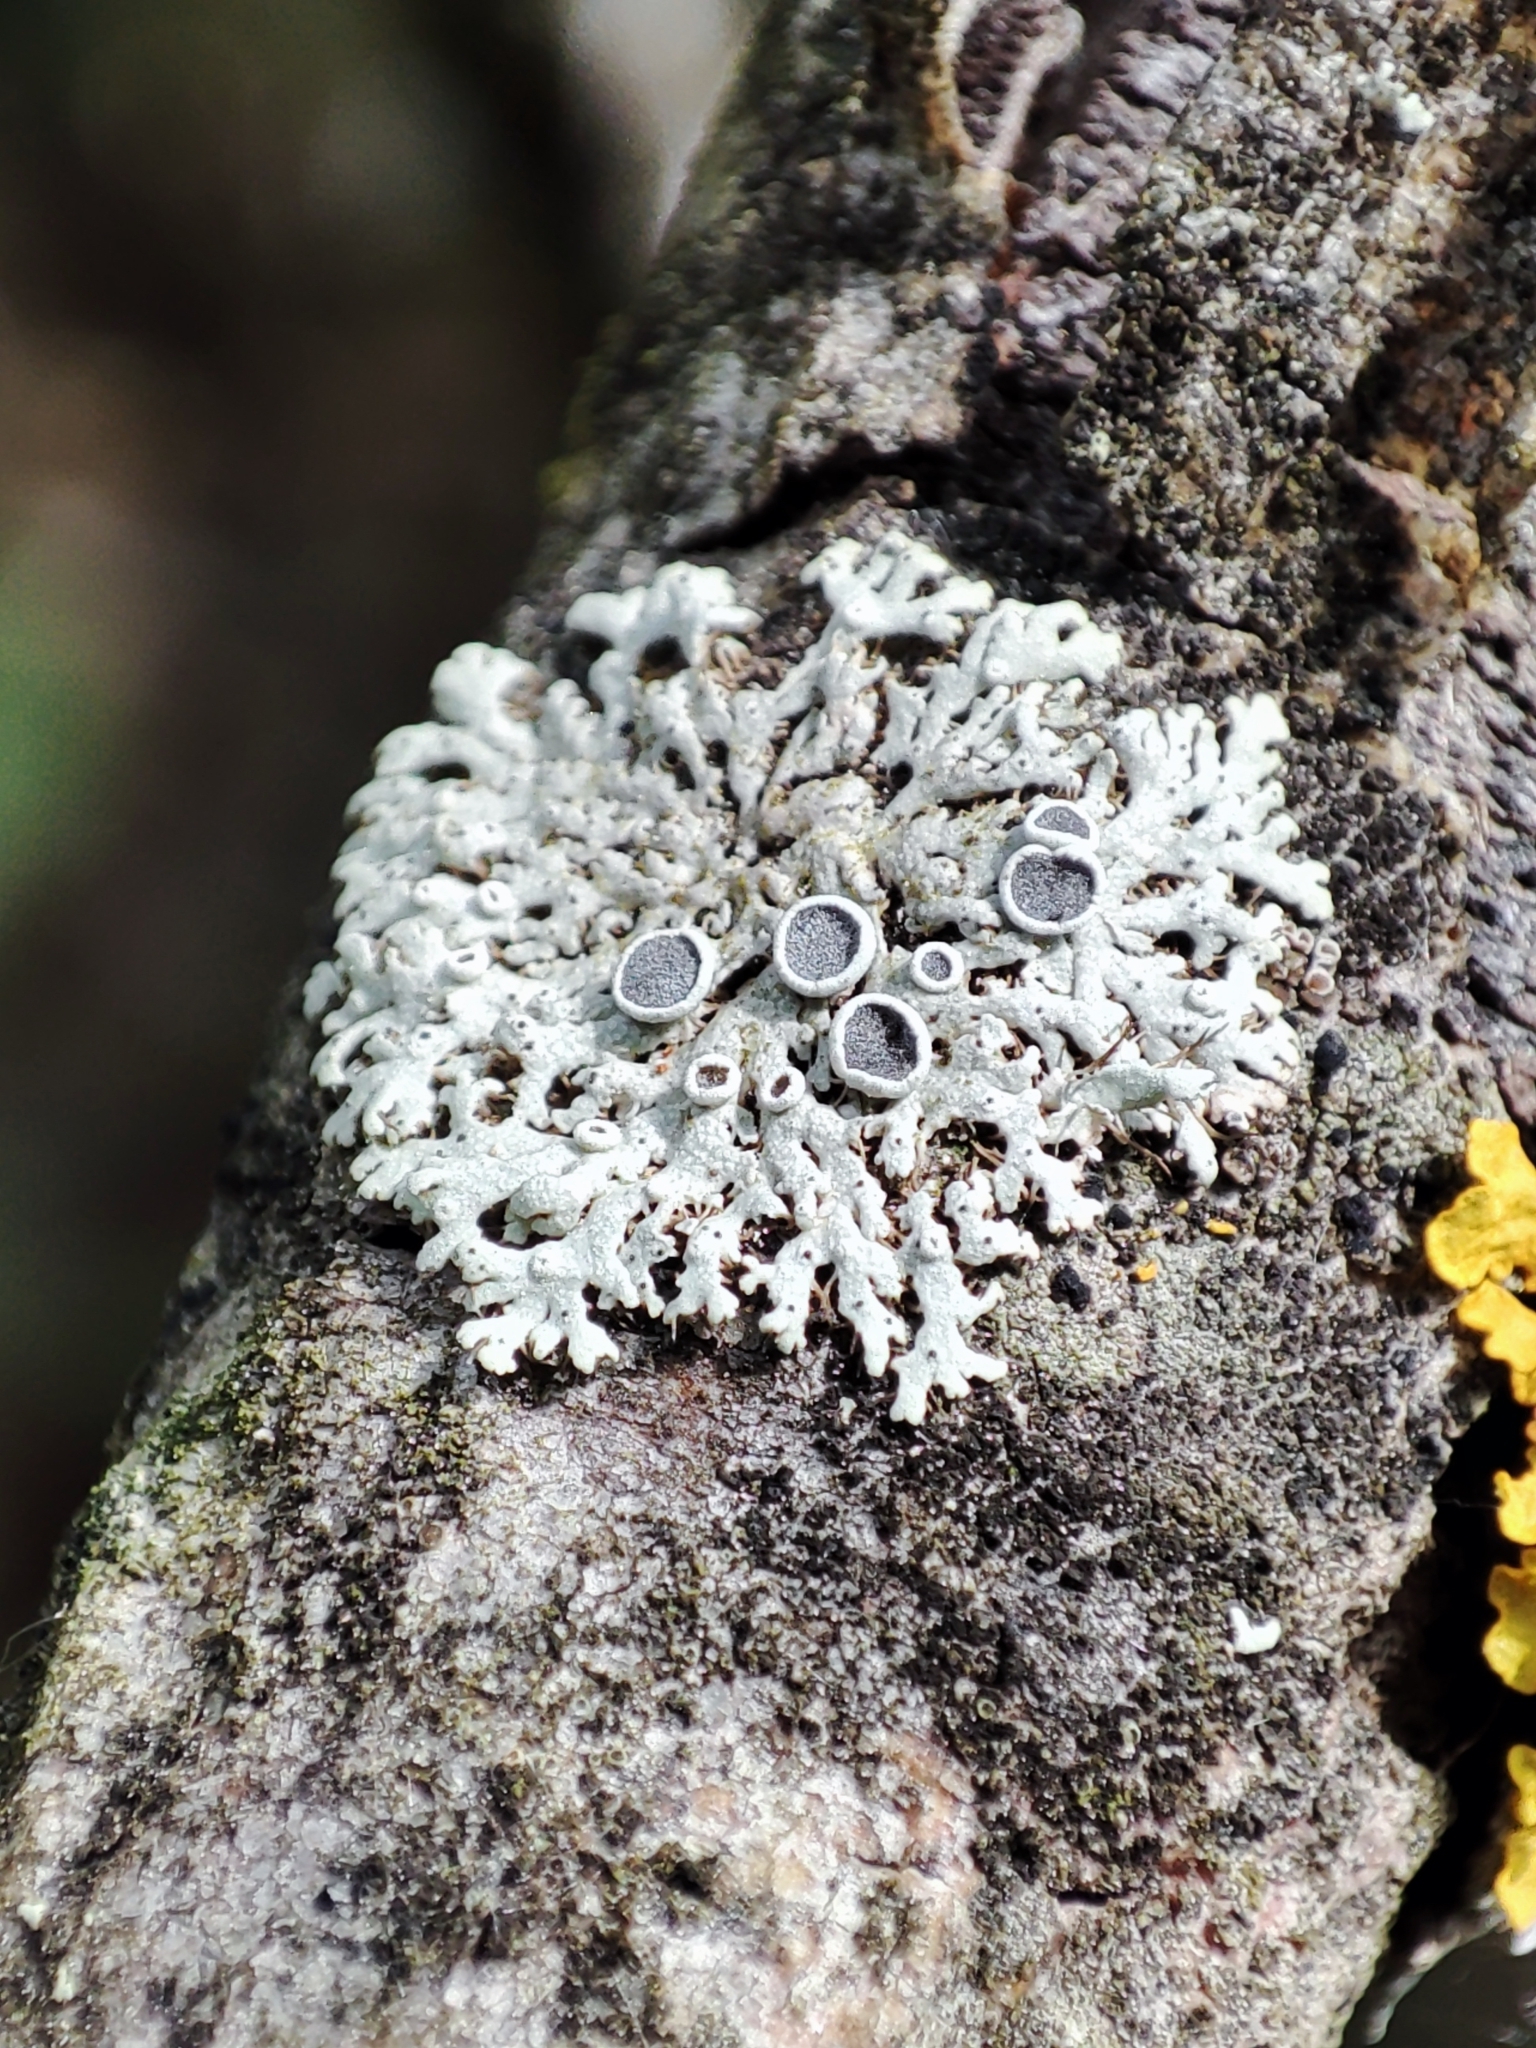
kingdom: Fungi
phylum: Ascomycota
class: Lecanoromycetes
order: Caliciales
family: Physciaceae
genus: Physcia
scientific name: Physcia stellaris
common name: Star rosette lichen
